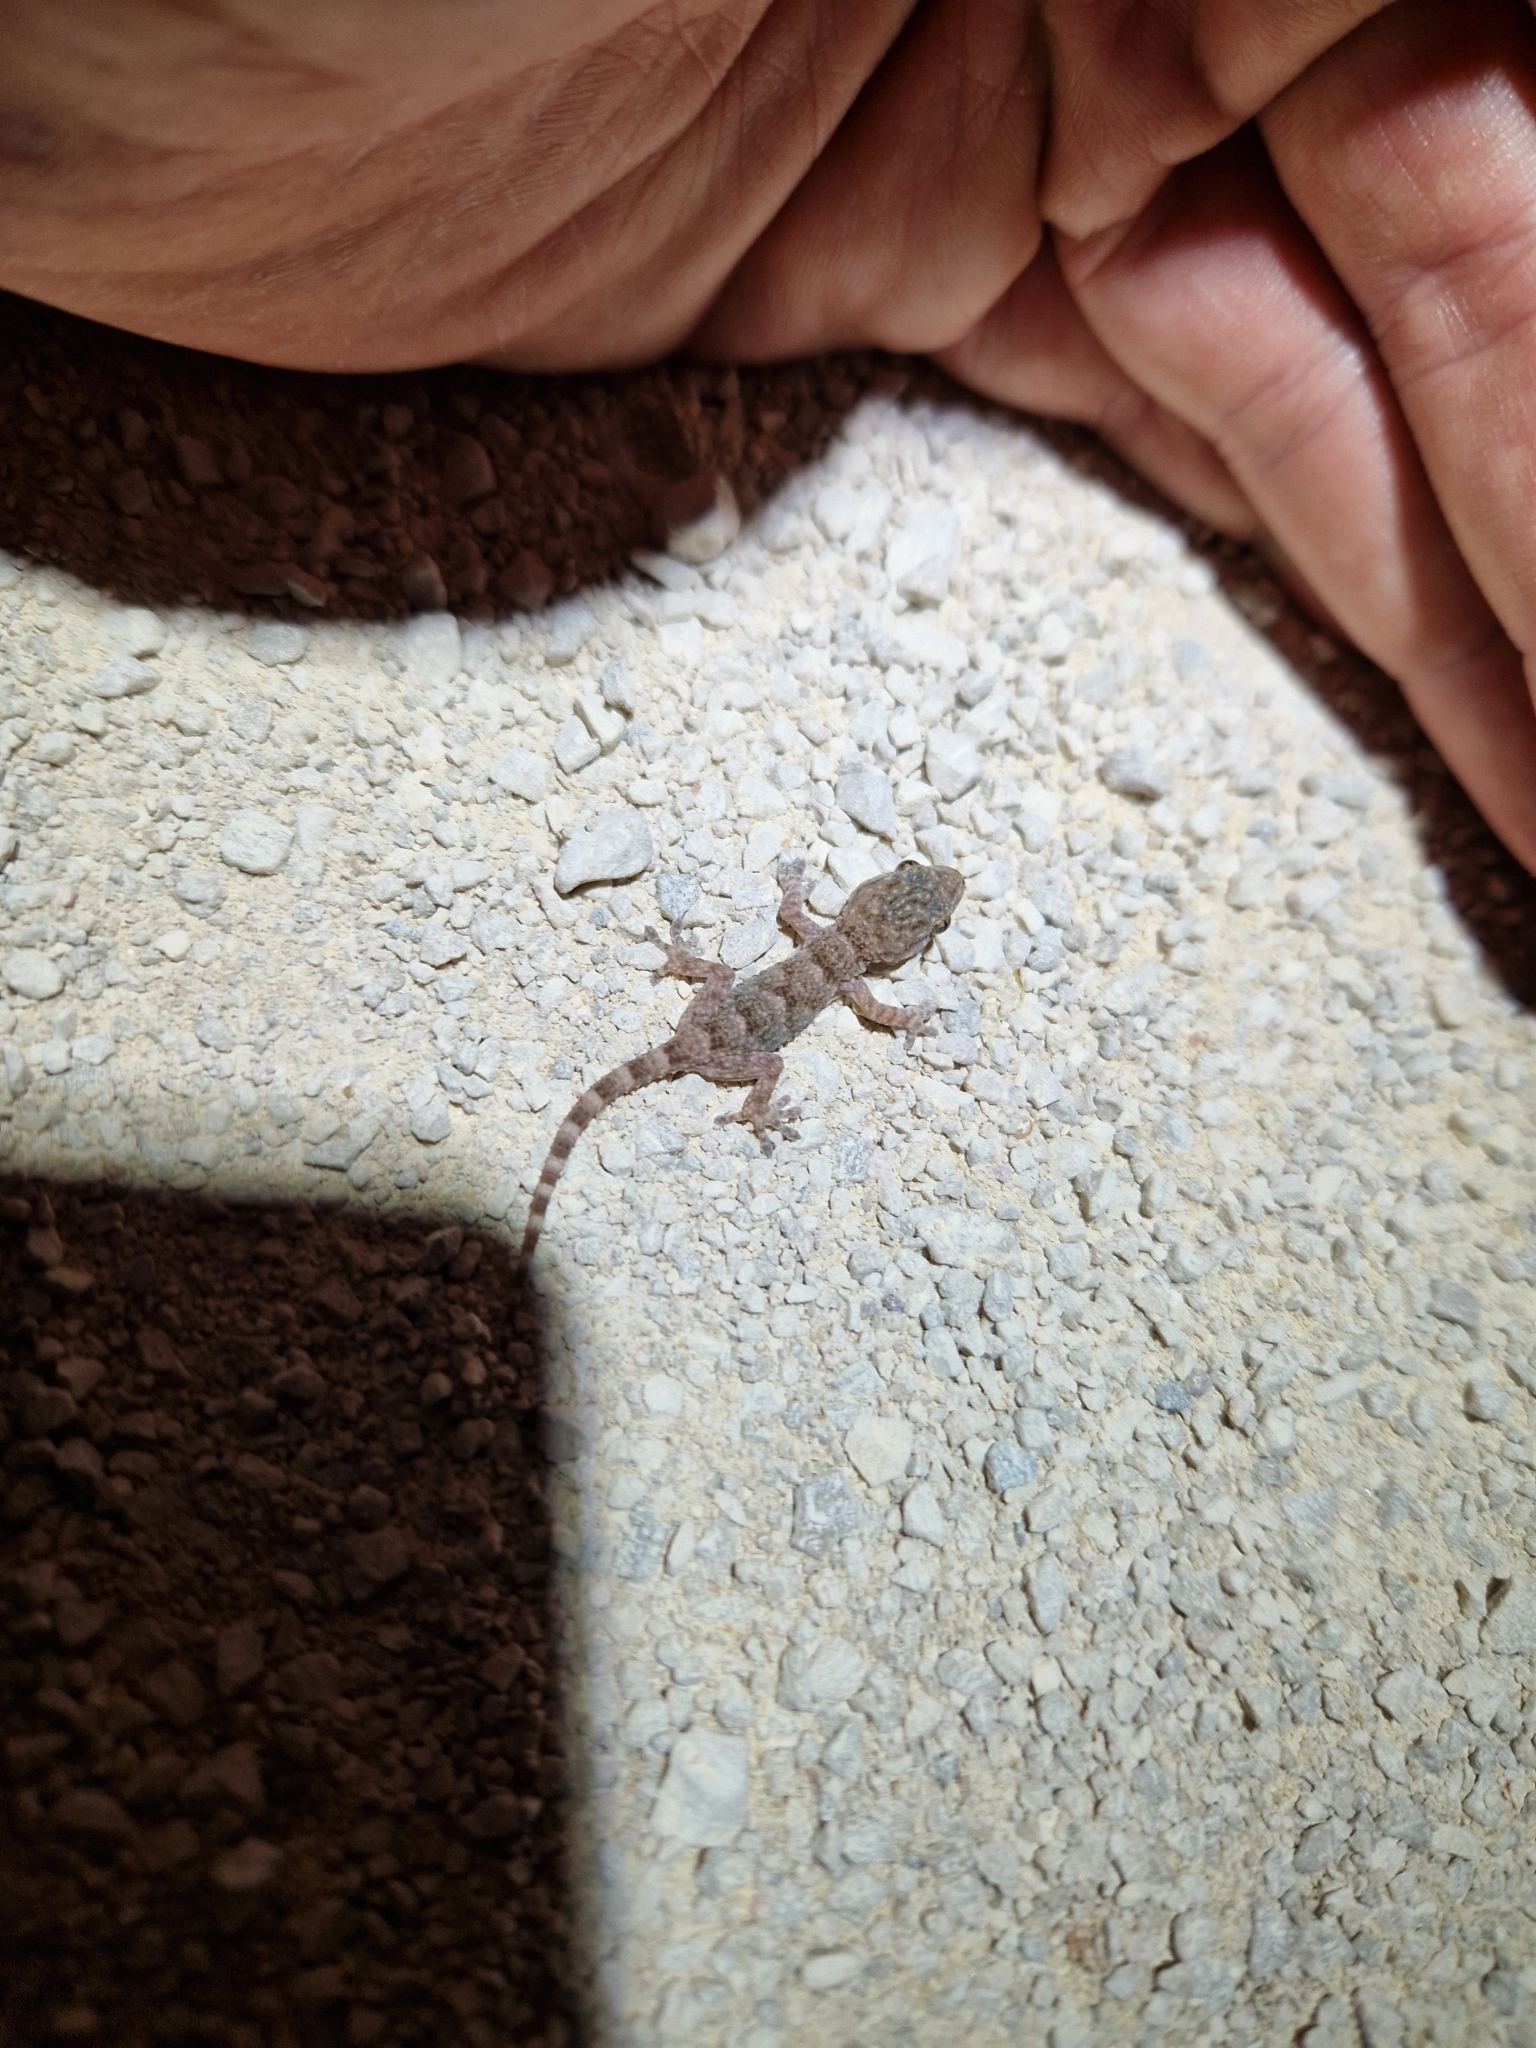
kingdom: Animalia
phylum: Chordata
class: Squamata
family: Phyllodactylidae
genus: Tarentola
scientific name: Tarentola mauritanica
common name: Moorish gecko
